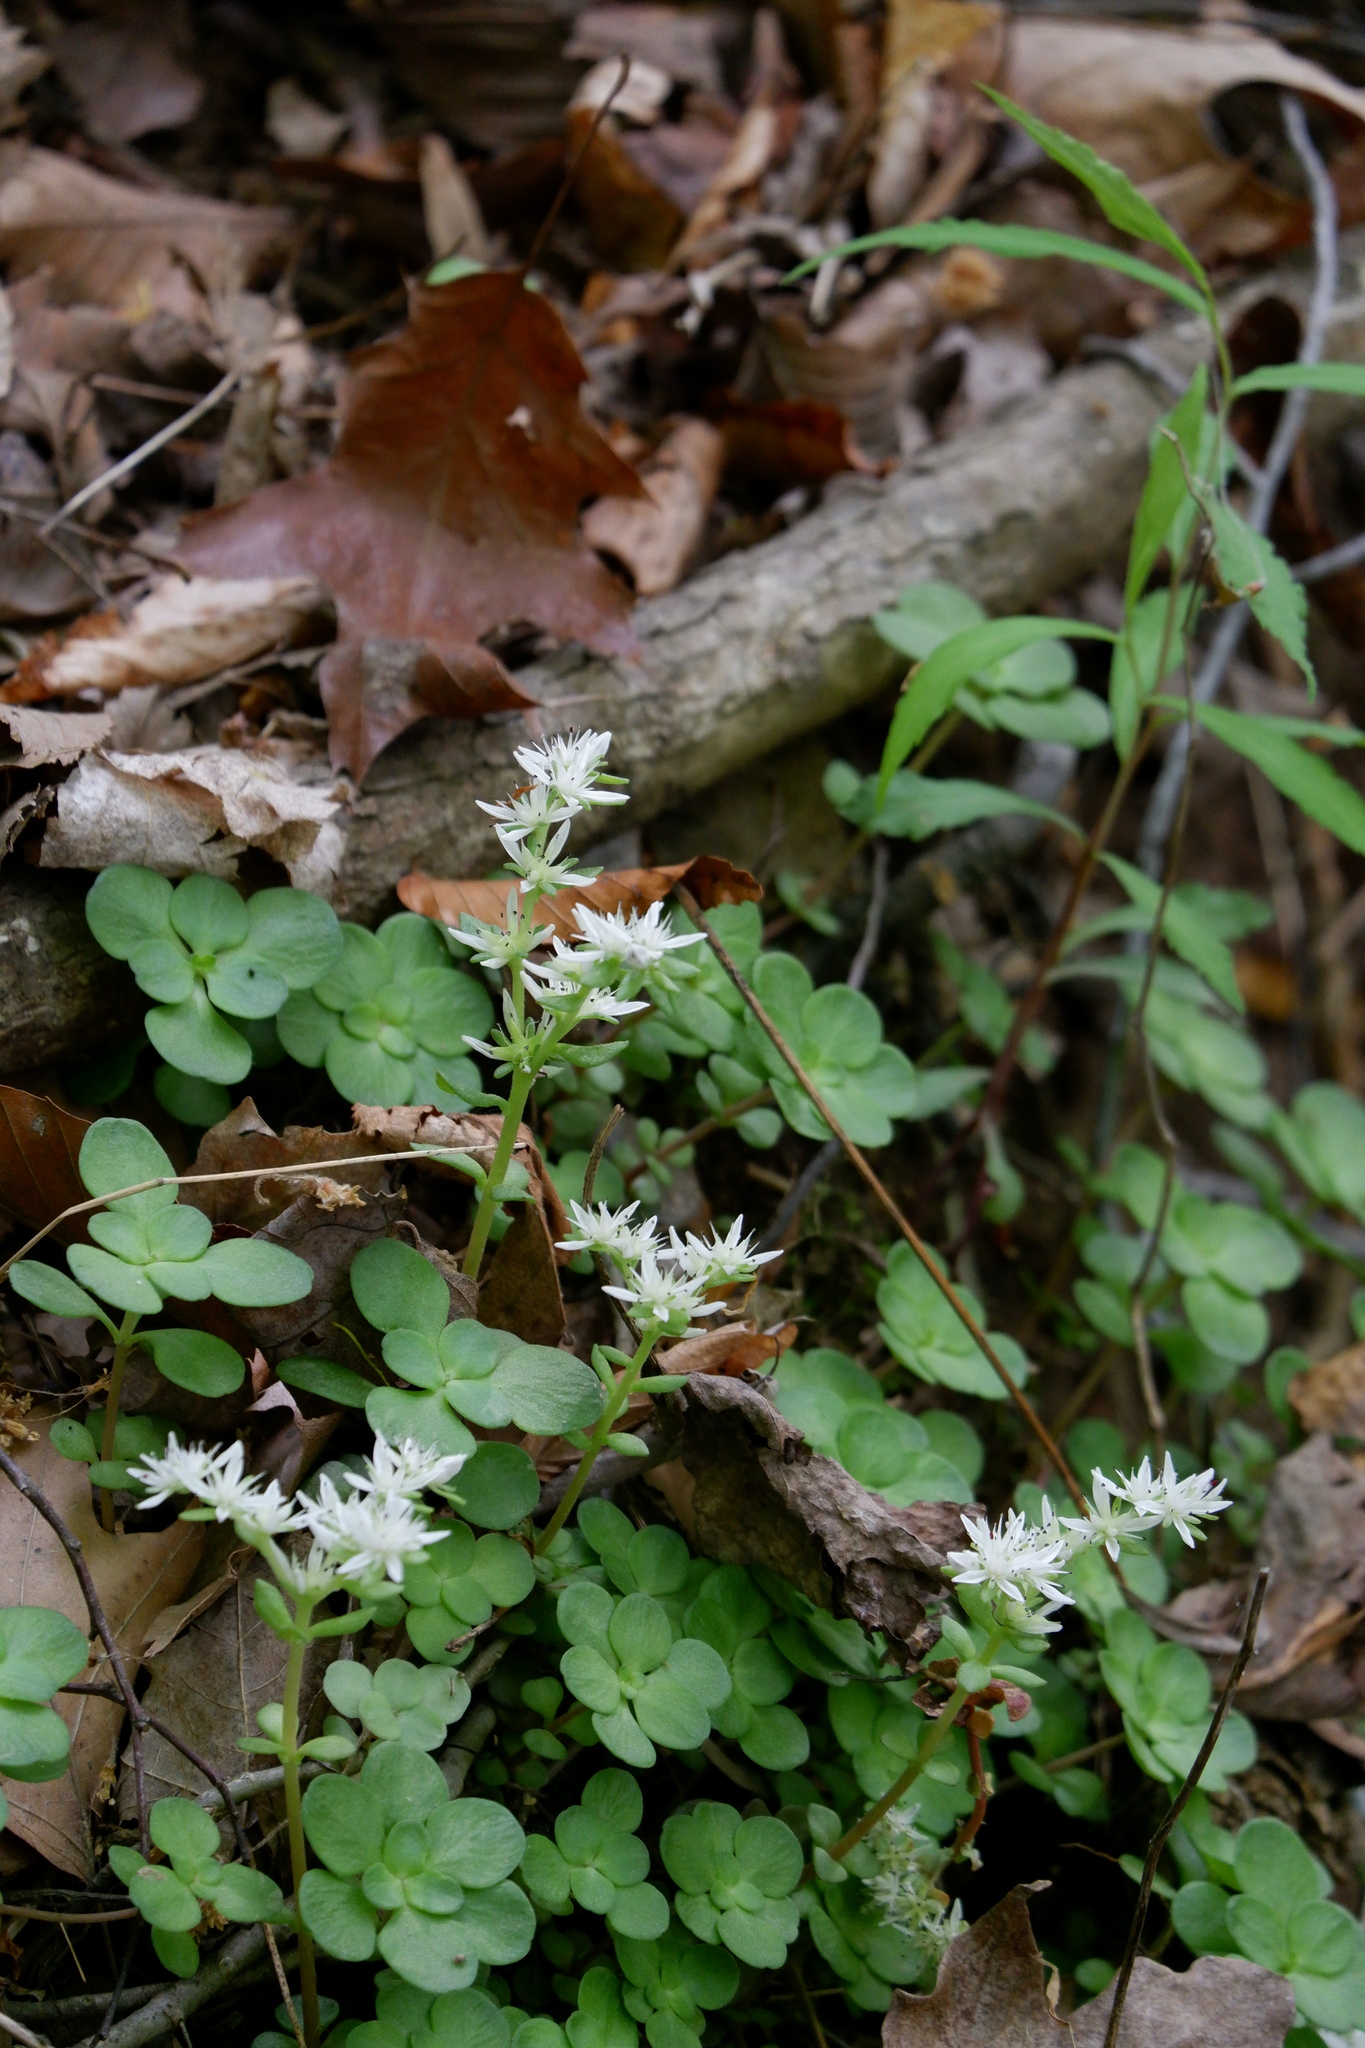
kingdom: Plantae
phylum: Tracheophyta
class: Magnoliopsida
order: Saxifragales
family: Crassulaceae
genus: Sedum
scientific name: Sedum ternatum
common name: Wild stonecrop
